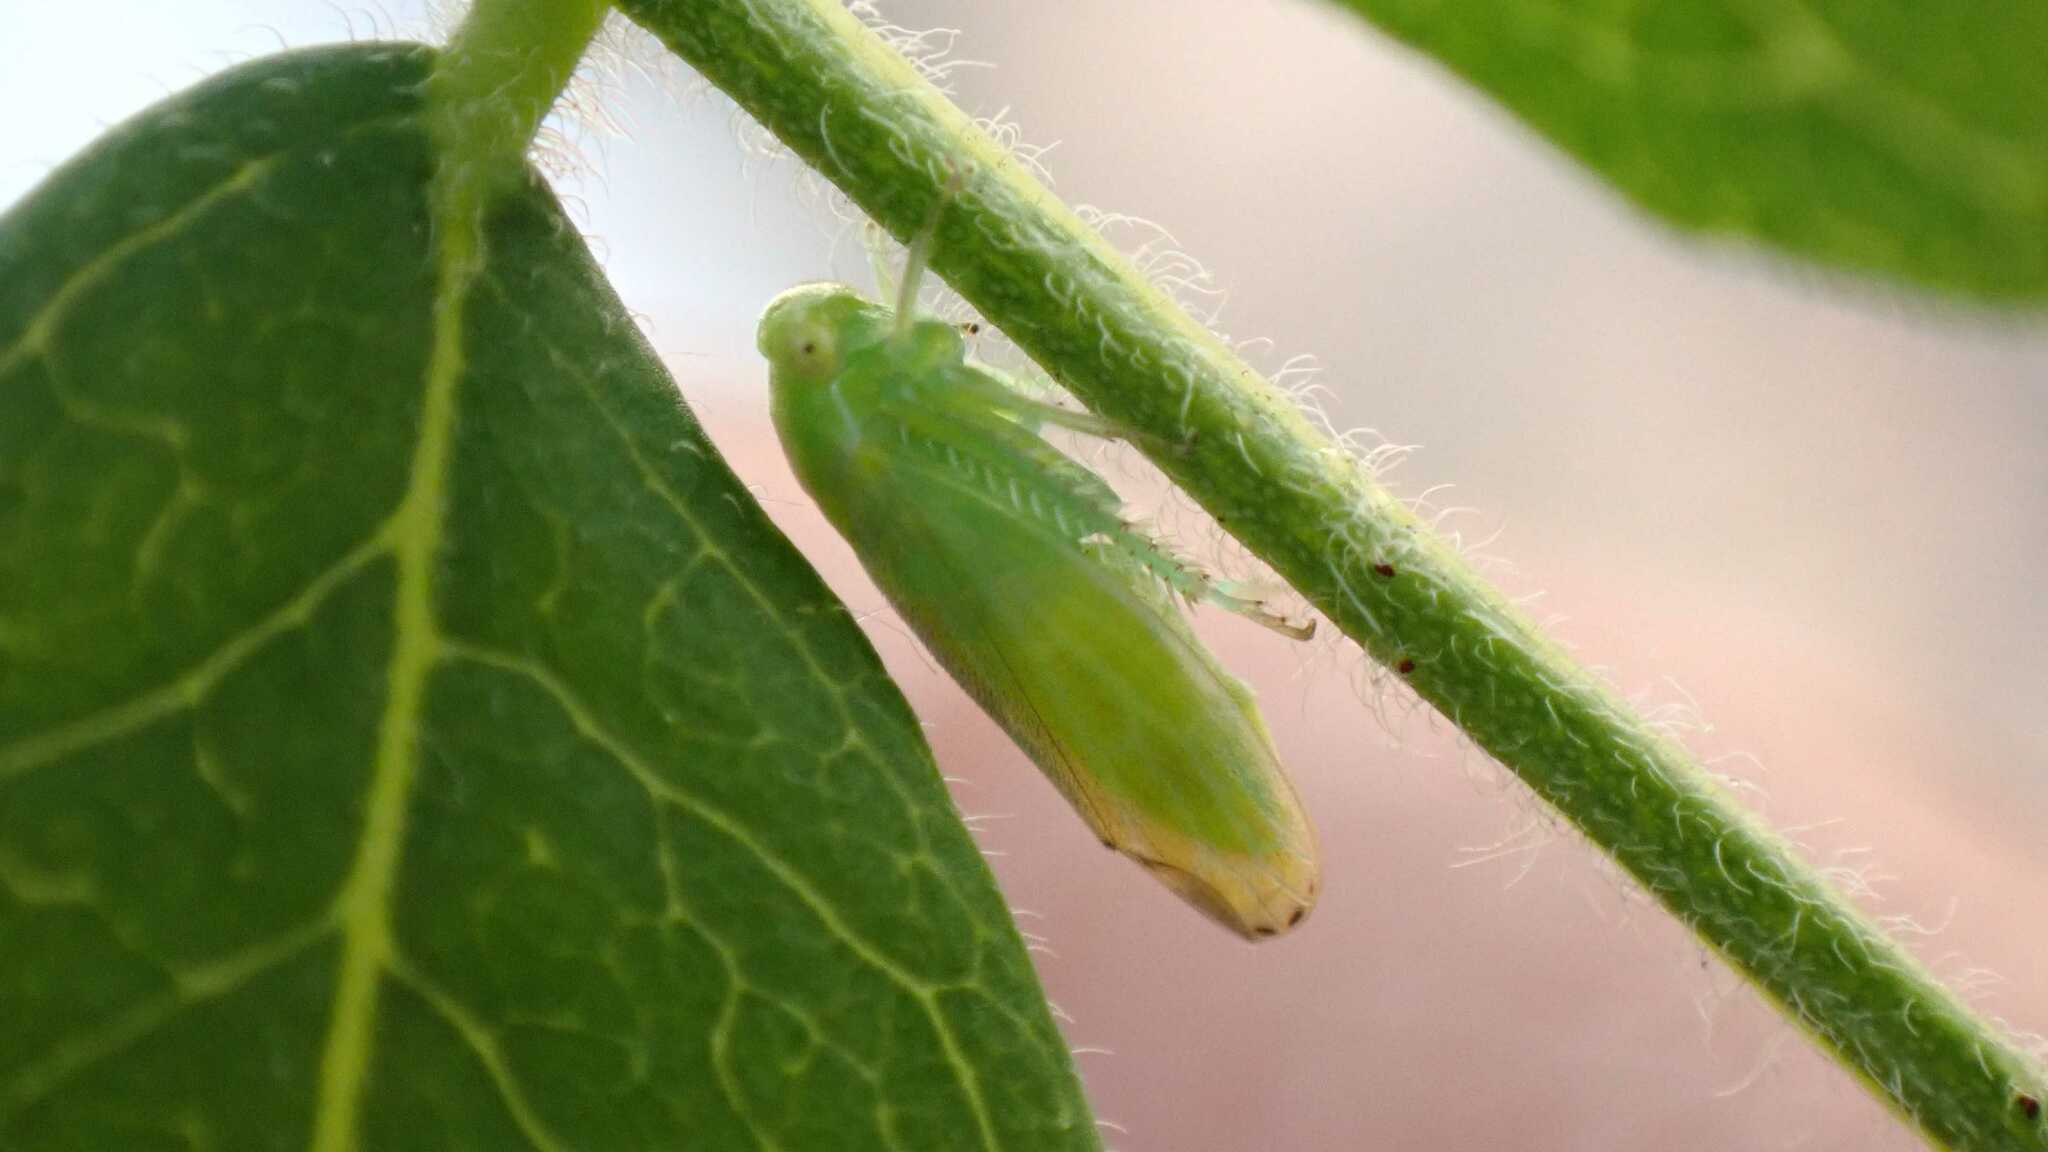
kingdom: Animalia
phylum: Arthropoda
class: Insecta
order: Hemiptera
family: Cicadellidae
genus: Stragania
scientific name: Stragania apicalis
